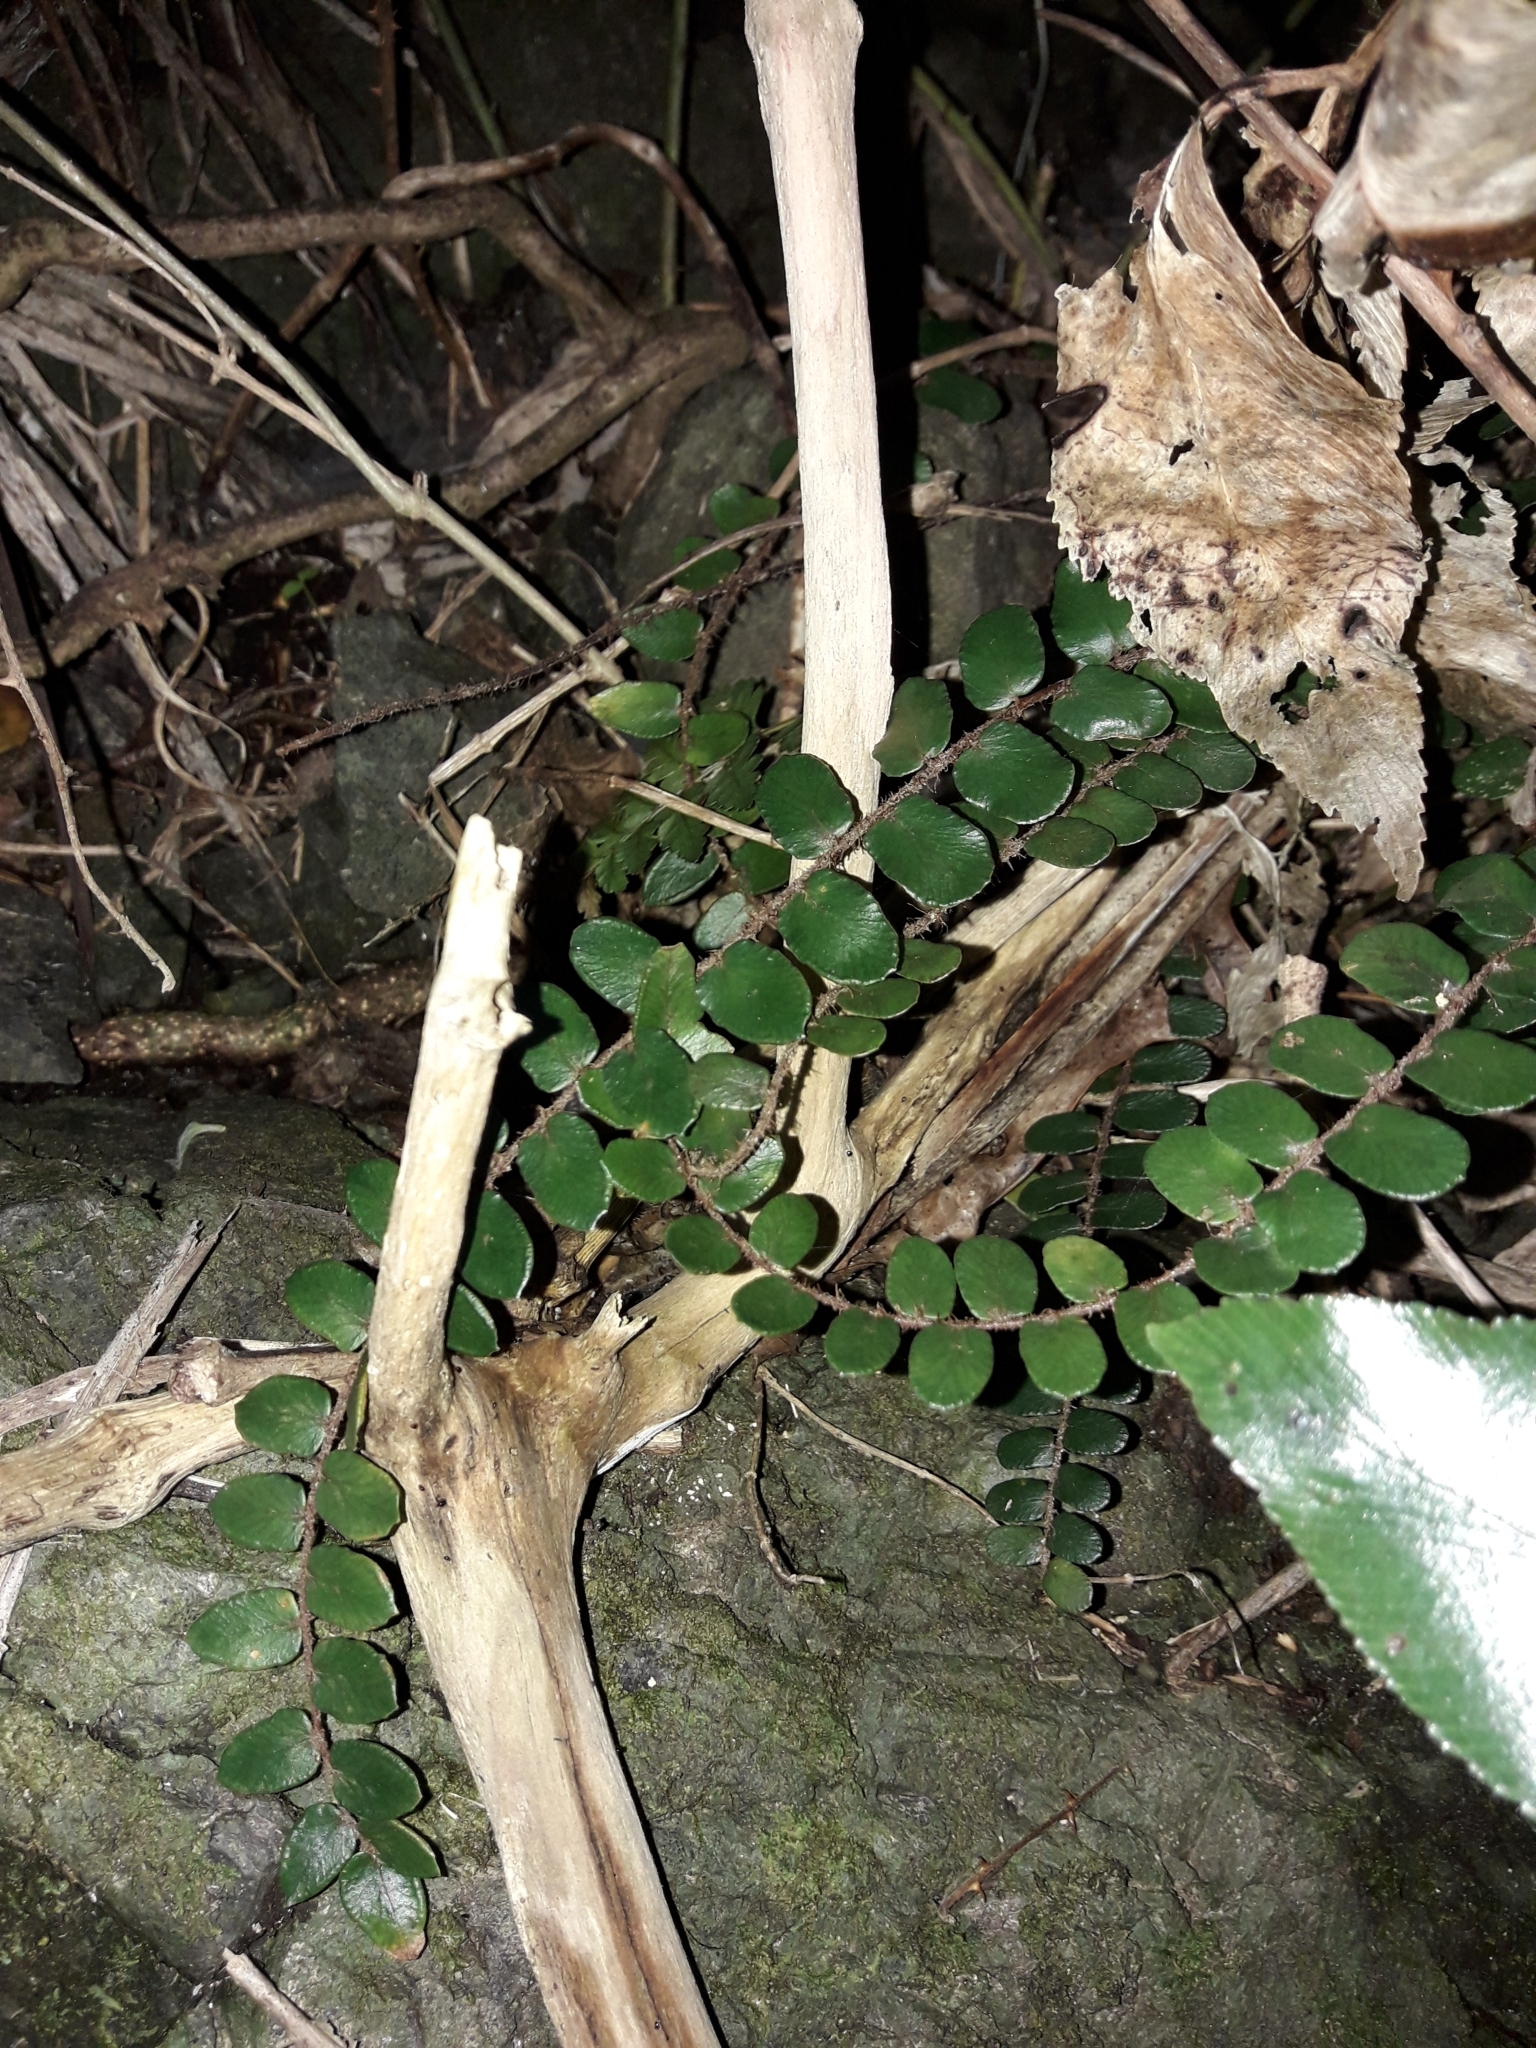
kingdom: Plantae
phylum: Tracheophyta
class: Polypodiopsida
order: Polypodiales
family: Pteridaceae
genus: Pellaea
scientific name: Pellaea rotundifolia
